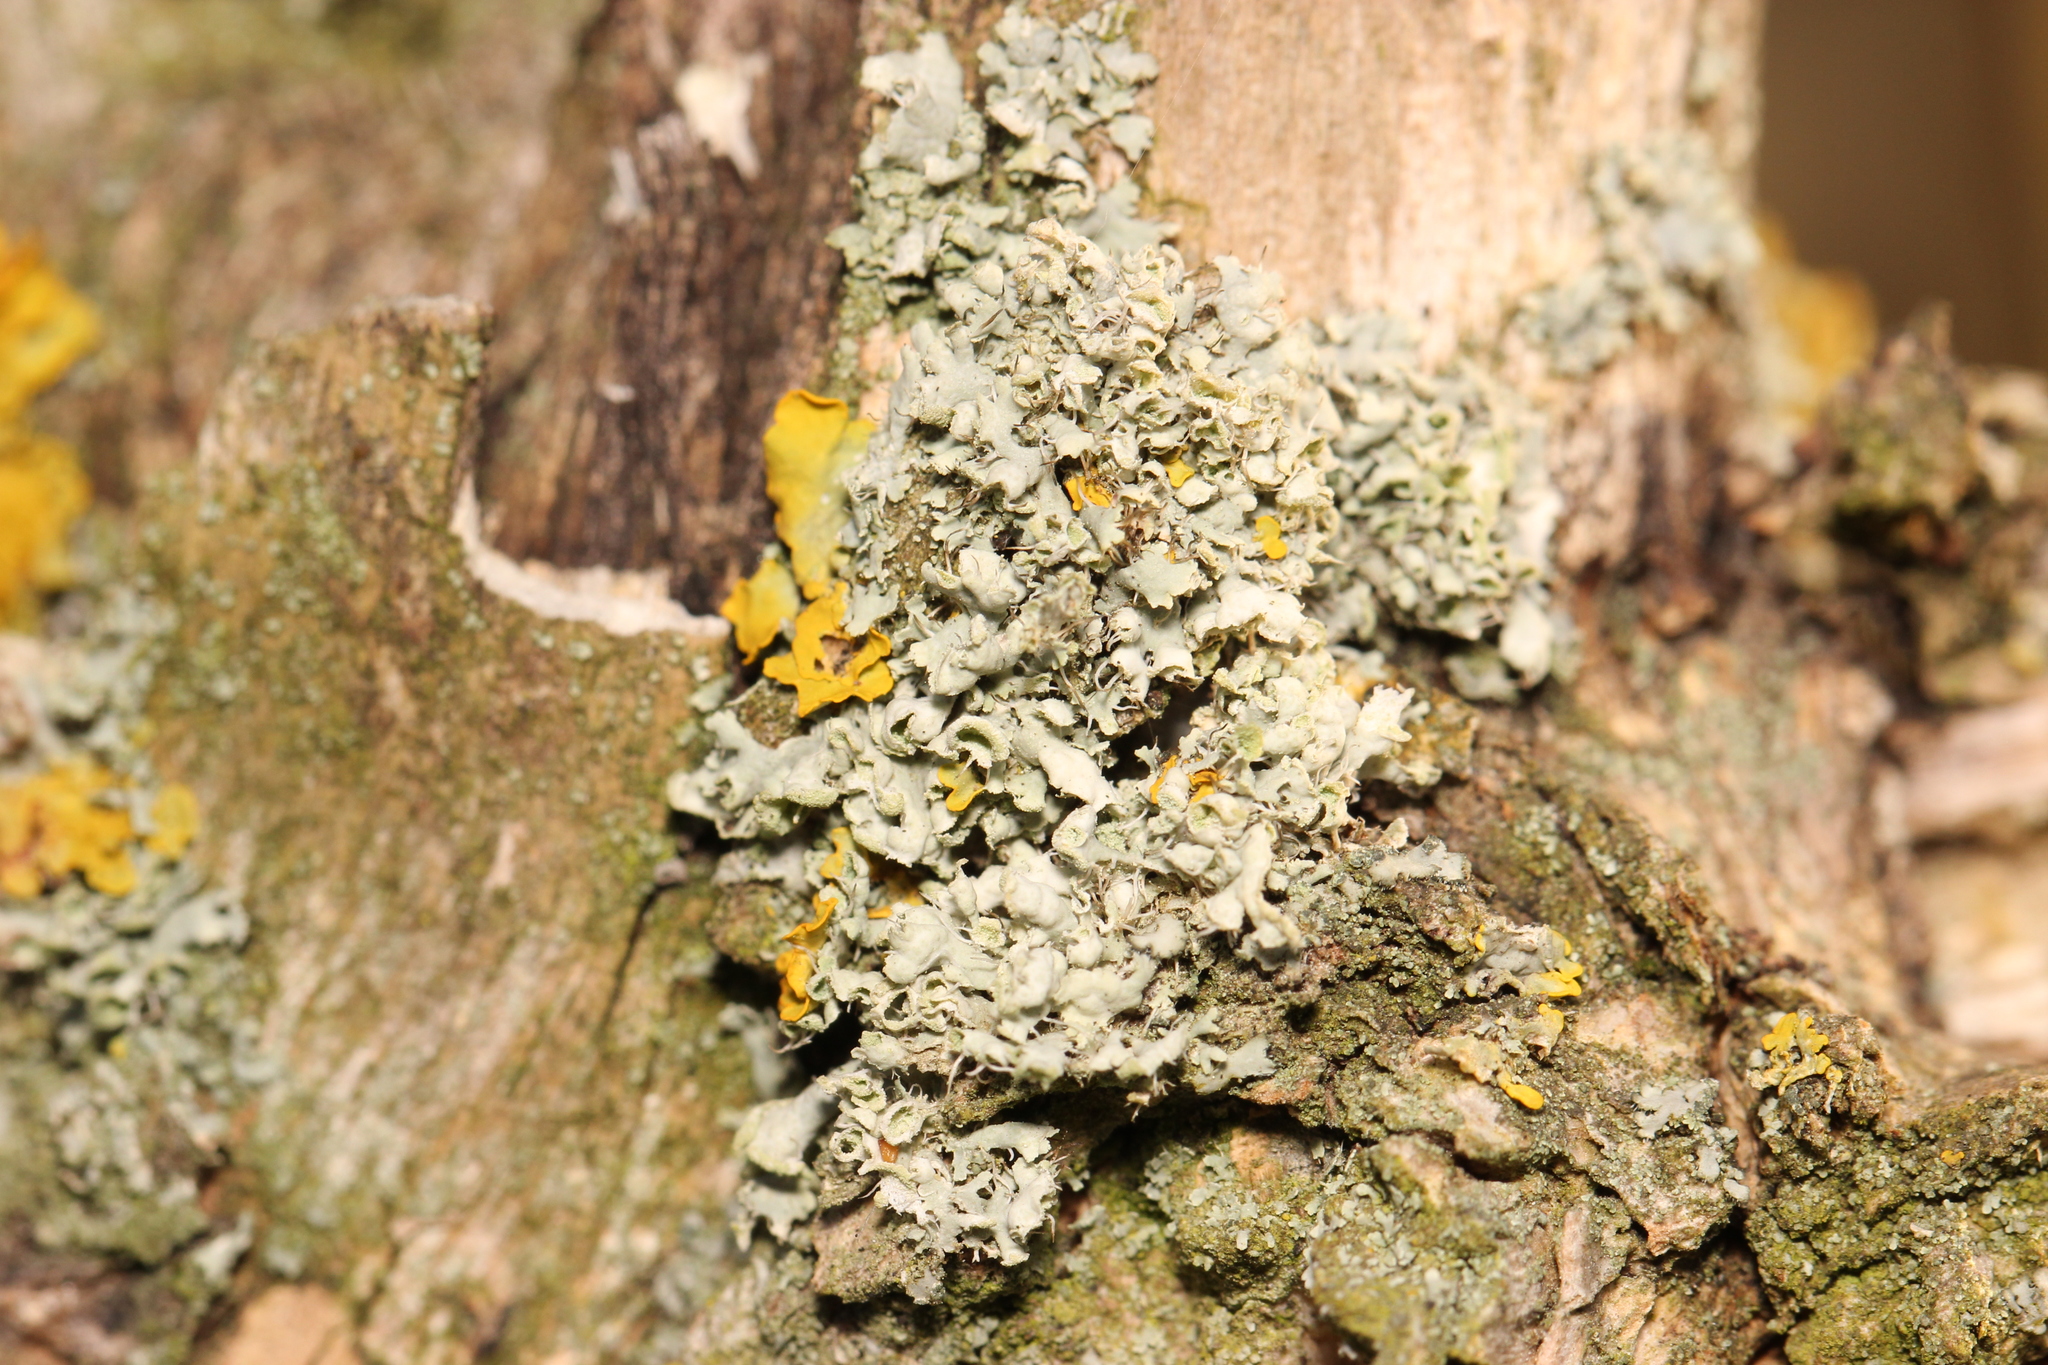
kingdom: Fungi
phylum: Ascomycota
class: Lecanoromycetes
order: Caliciales
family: Physciaceae
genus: Physcia
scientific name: Physcia adscendens
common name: Hooded rosette lichen
